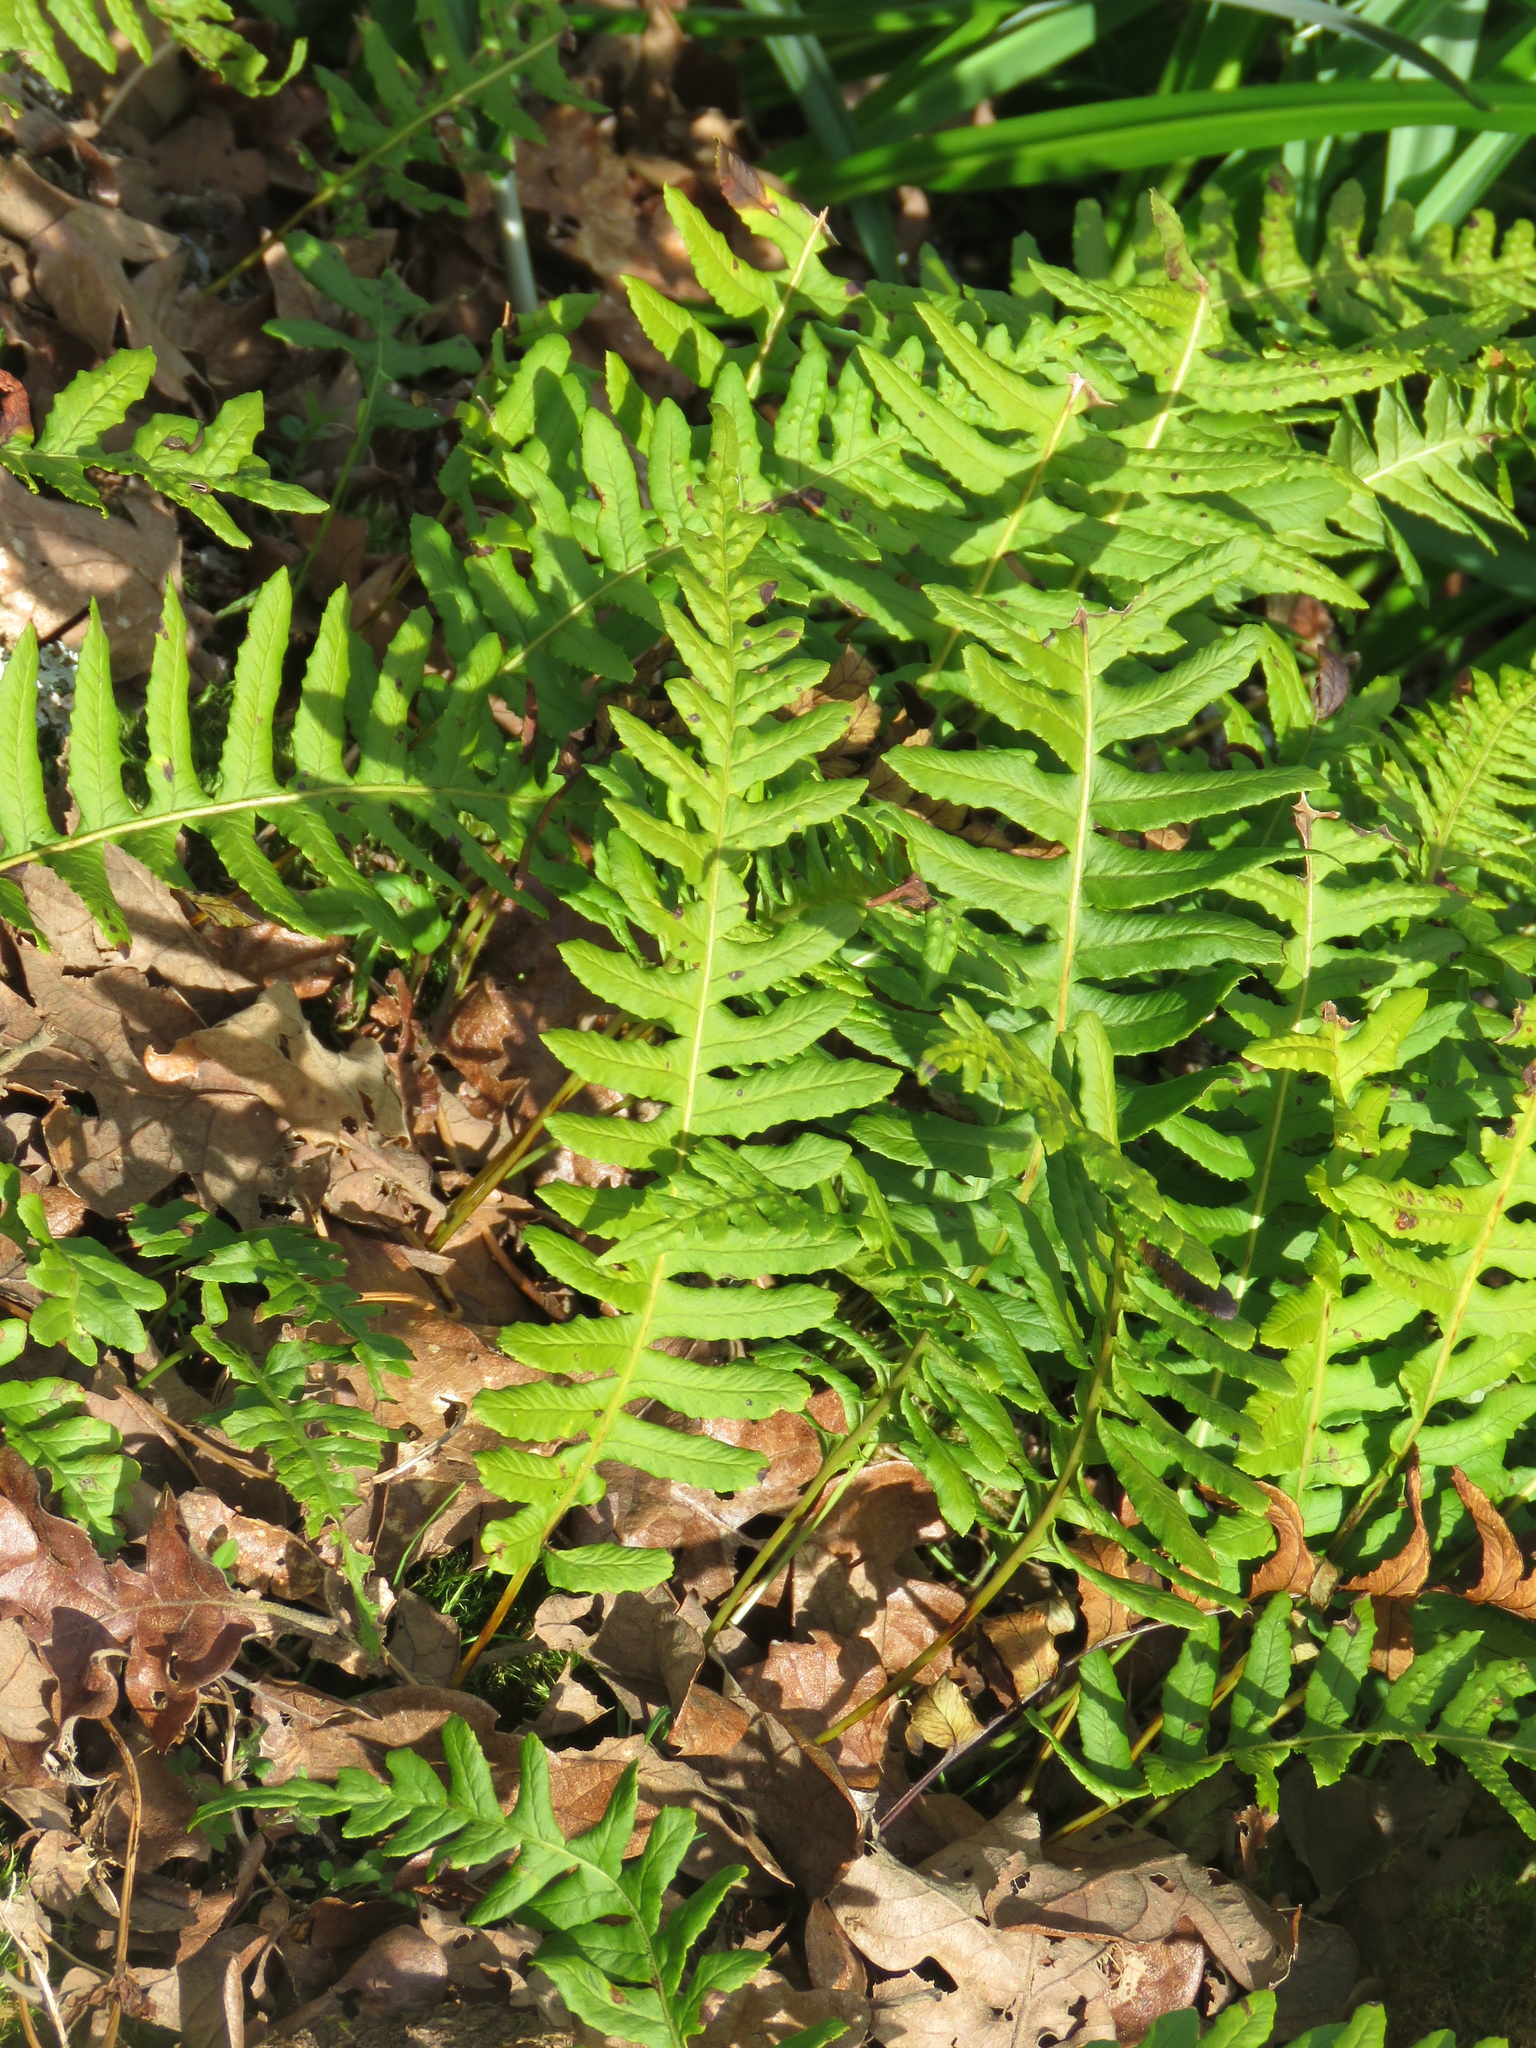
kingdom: Plantae
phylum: Tracheophyta
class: Polypodiopsida
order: Polypodiales
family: Polypodiaceae
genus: Polypodium
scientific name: Polypodium glycyrrhiza
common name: Licorice fern
